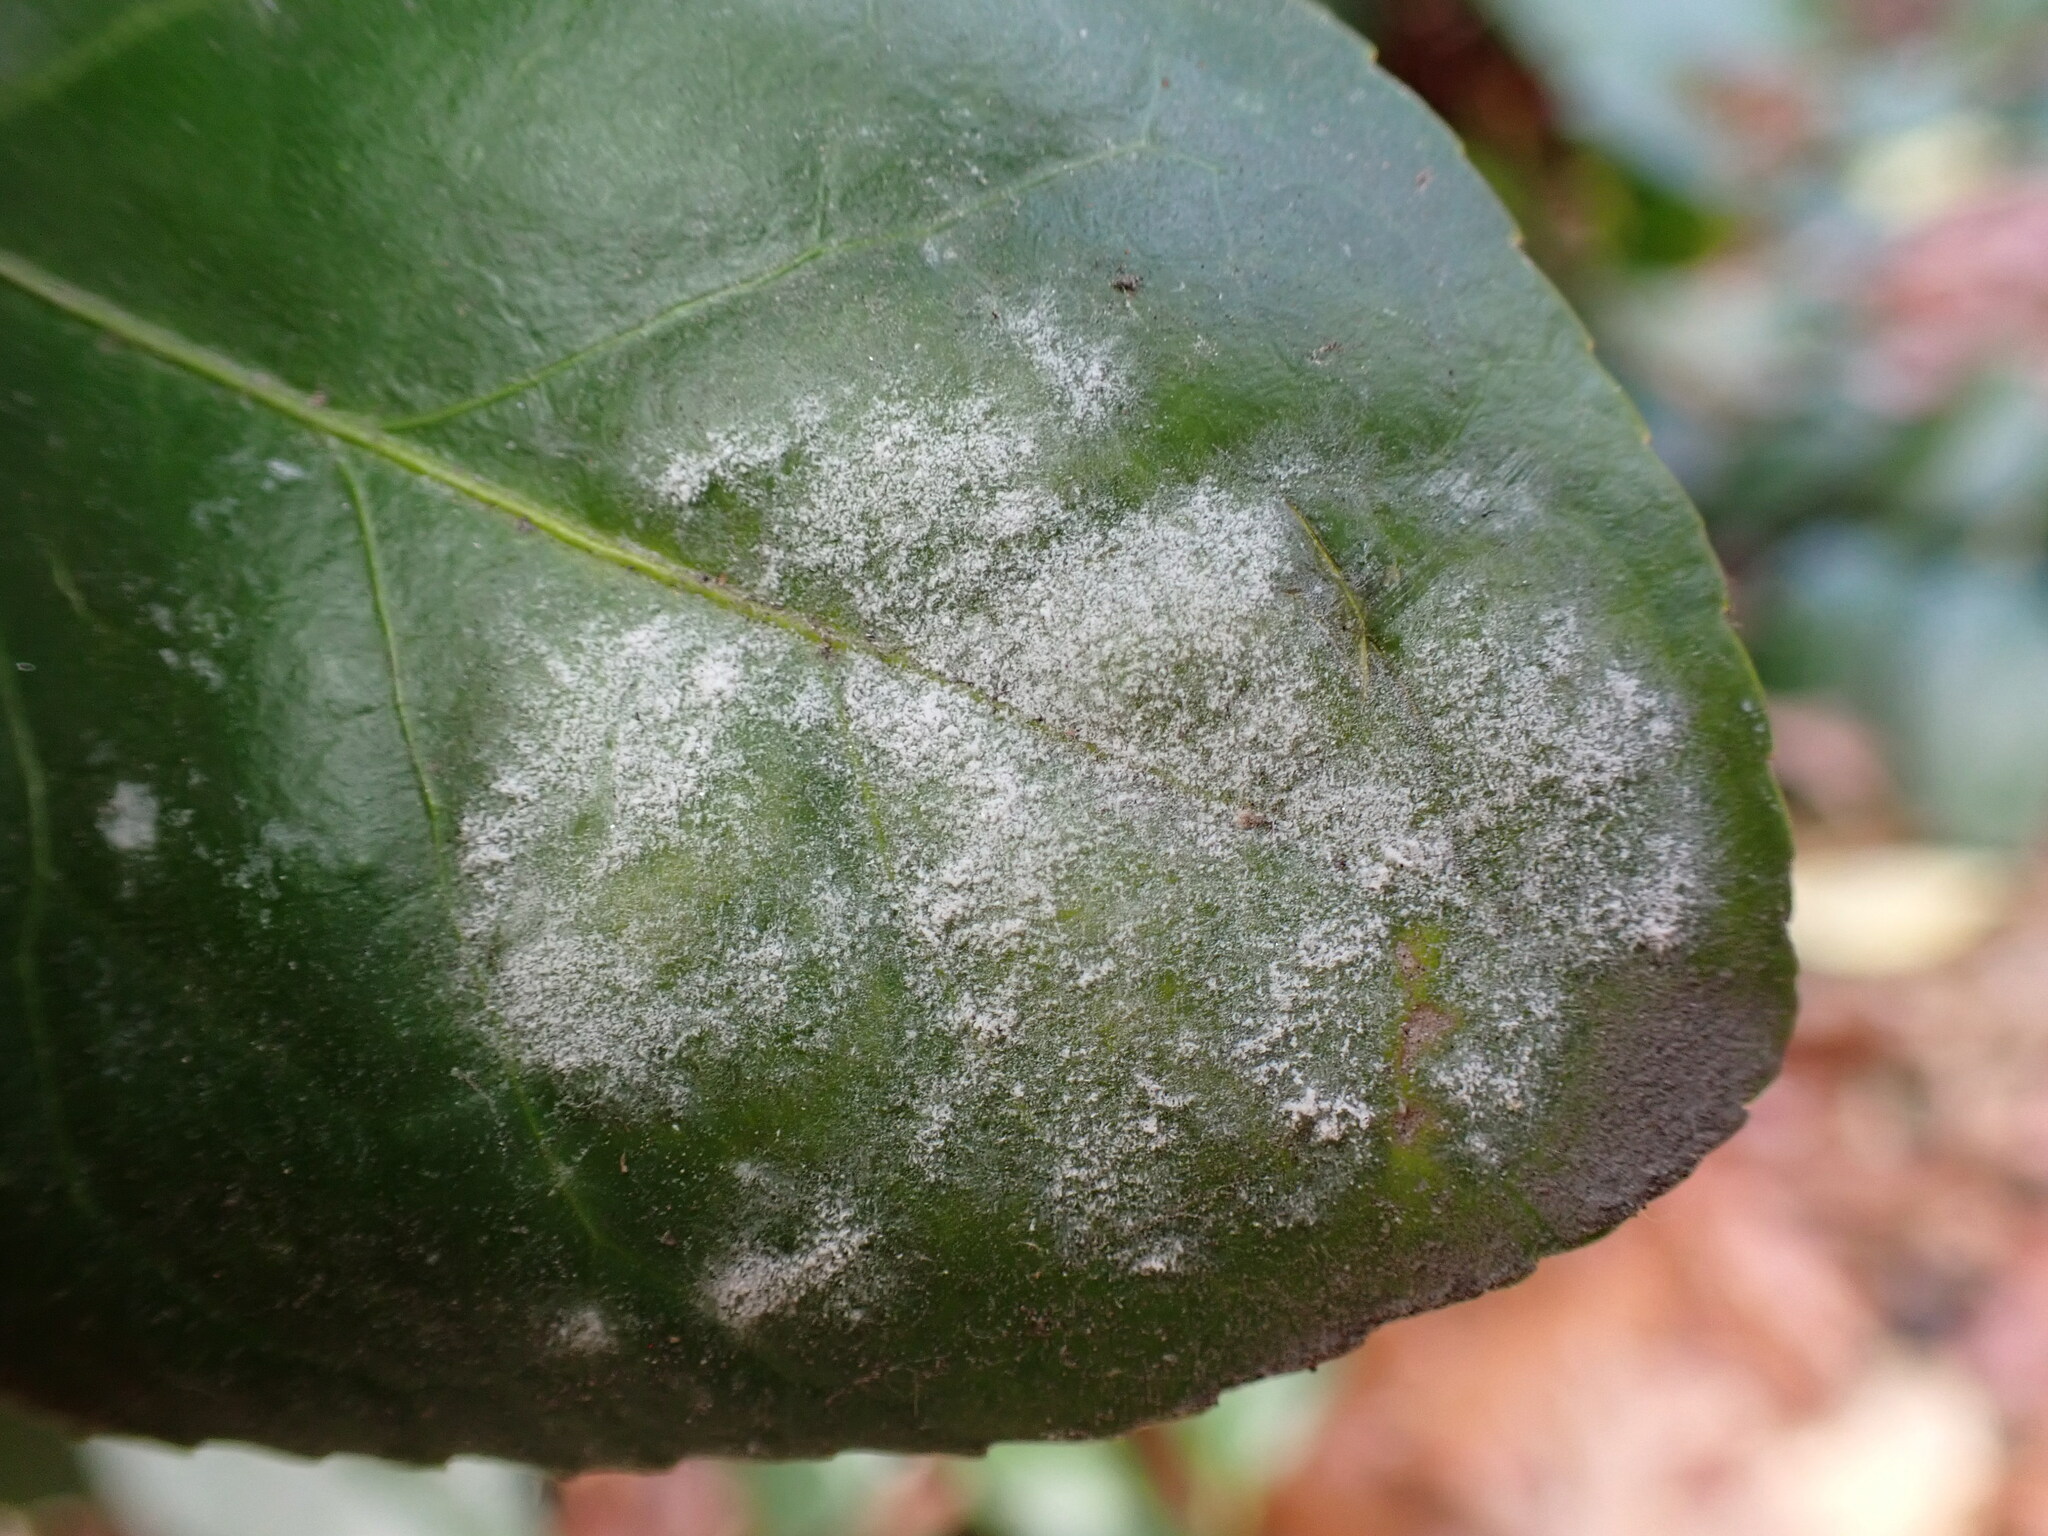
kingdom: Fungi
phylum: Ascomycota
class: Leotiomycetes
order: Helotiales
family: Erysiphaceae
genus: Erysiphe
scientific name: Erysiphe euonymicola
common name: Spindletree mildew
